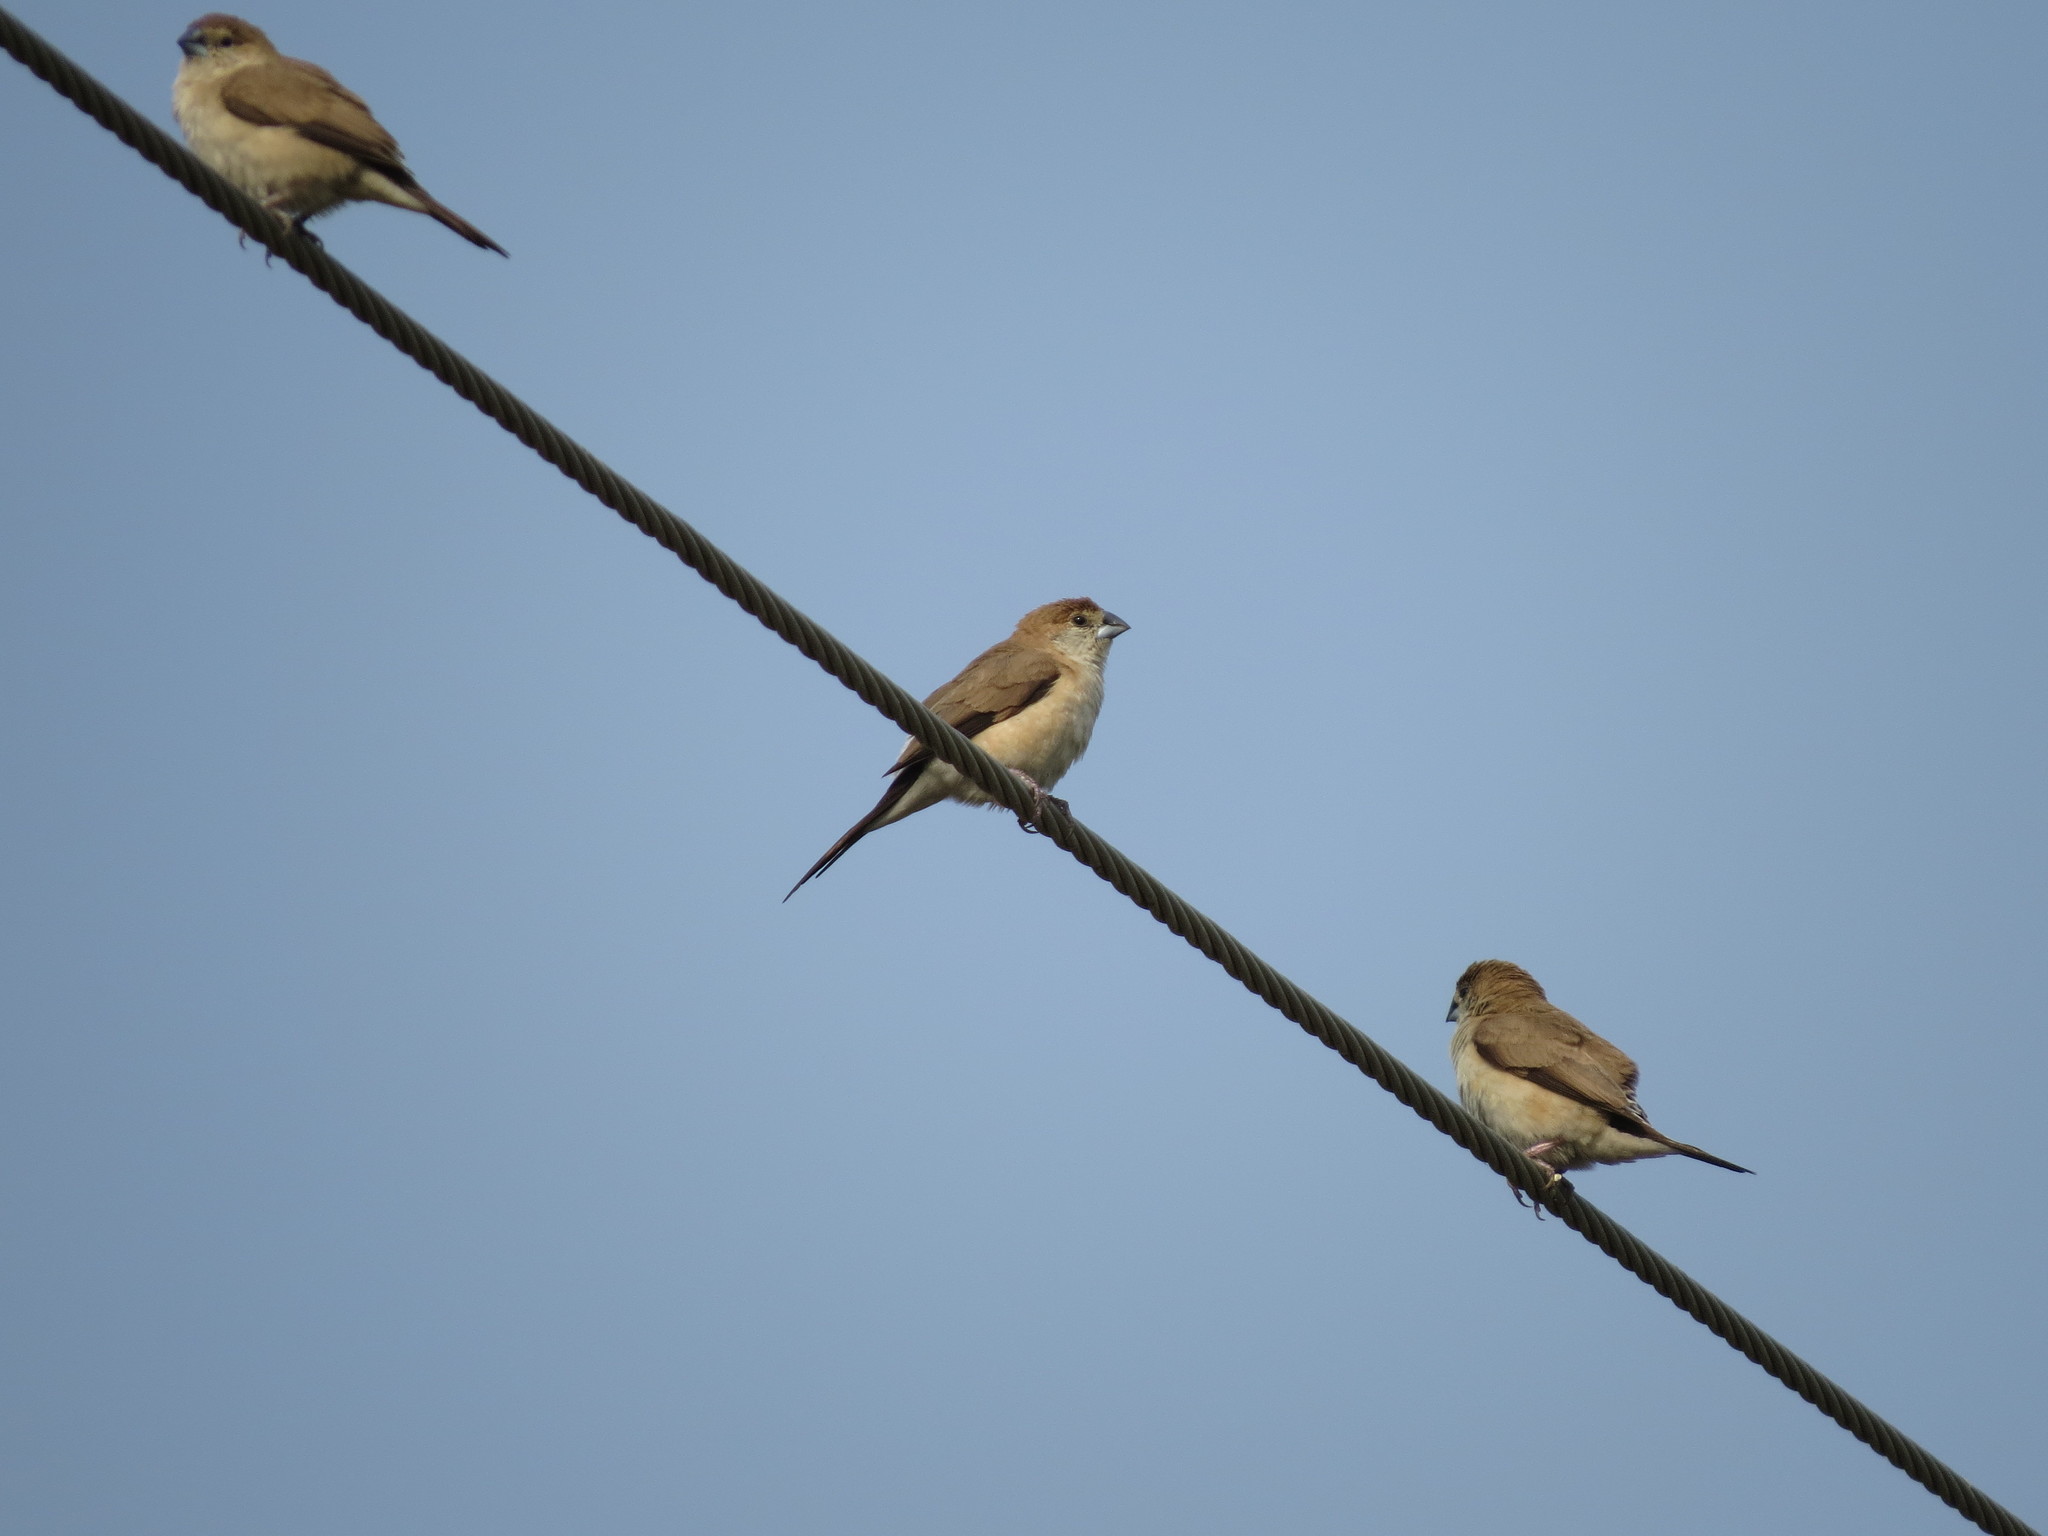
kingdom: Animalia
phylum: Chordata
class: Aves
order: Passeriformes
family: Estrildidae
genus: Euodice
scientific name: Euodice malabarica
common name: Indian silverbill
